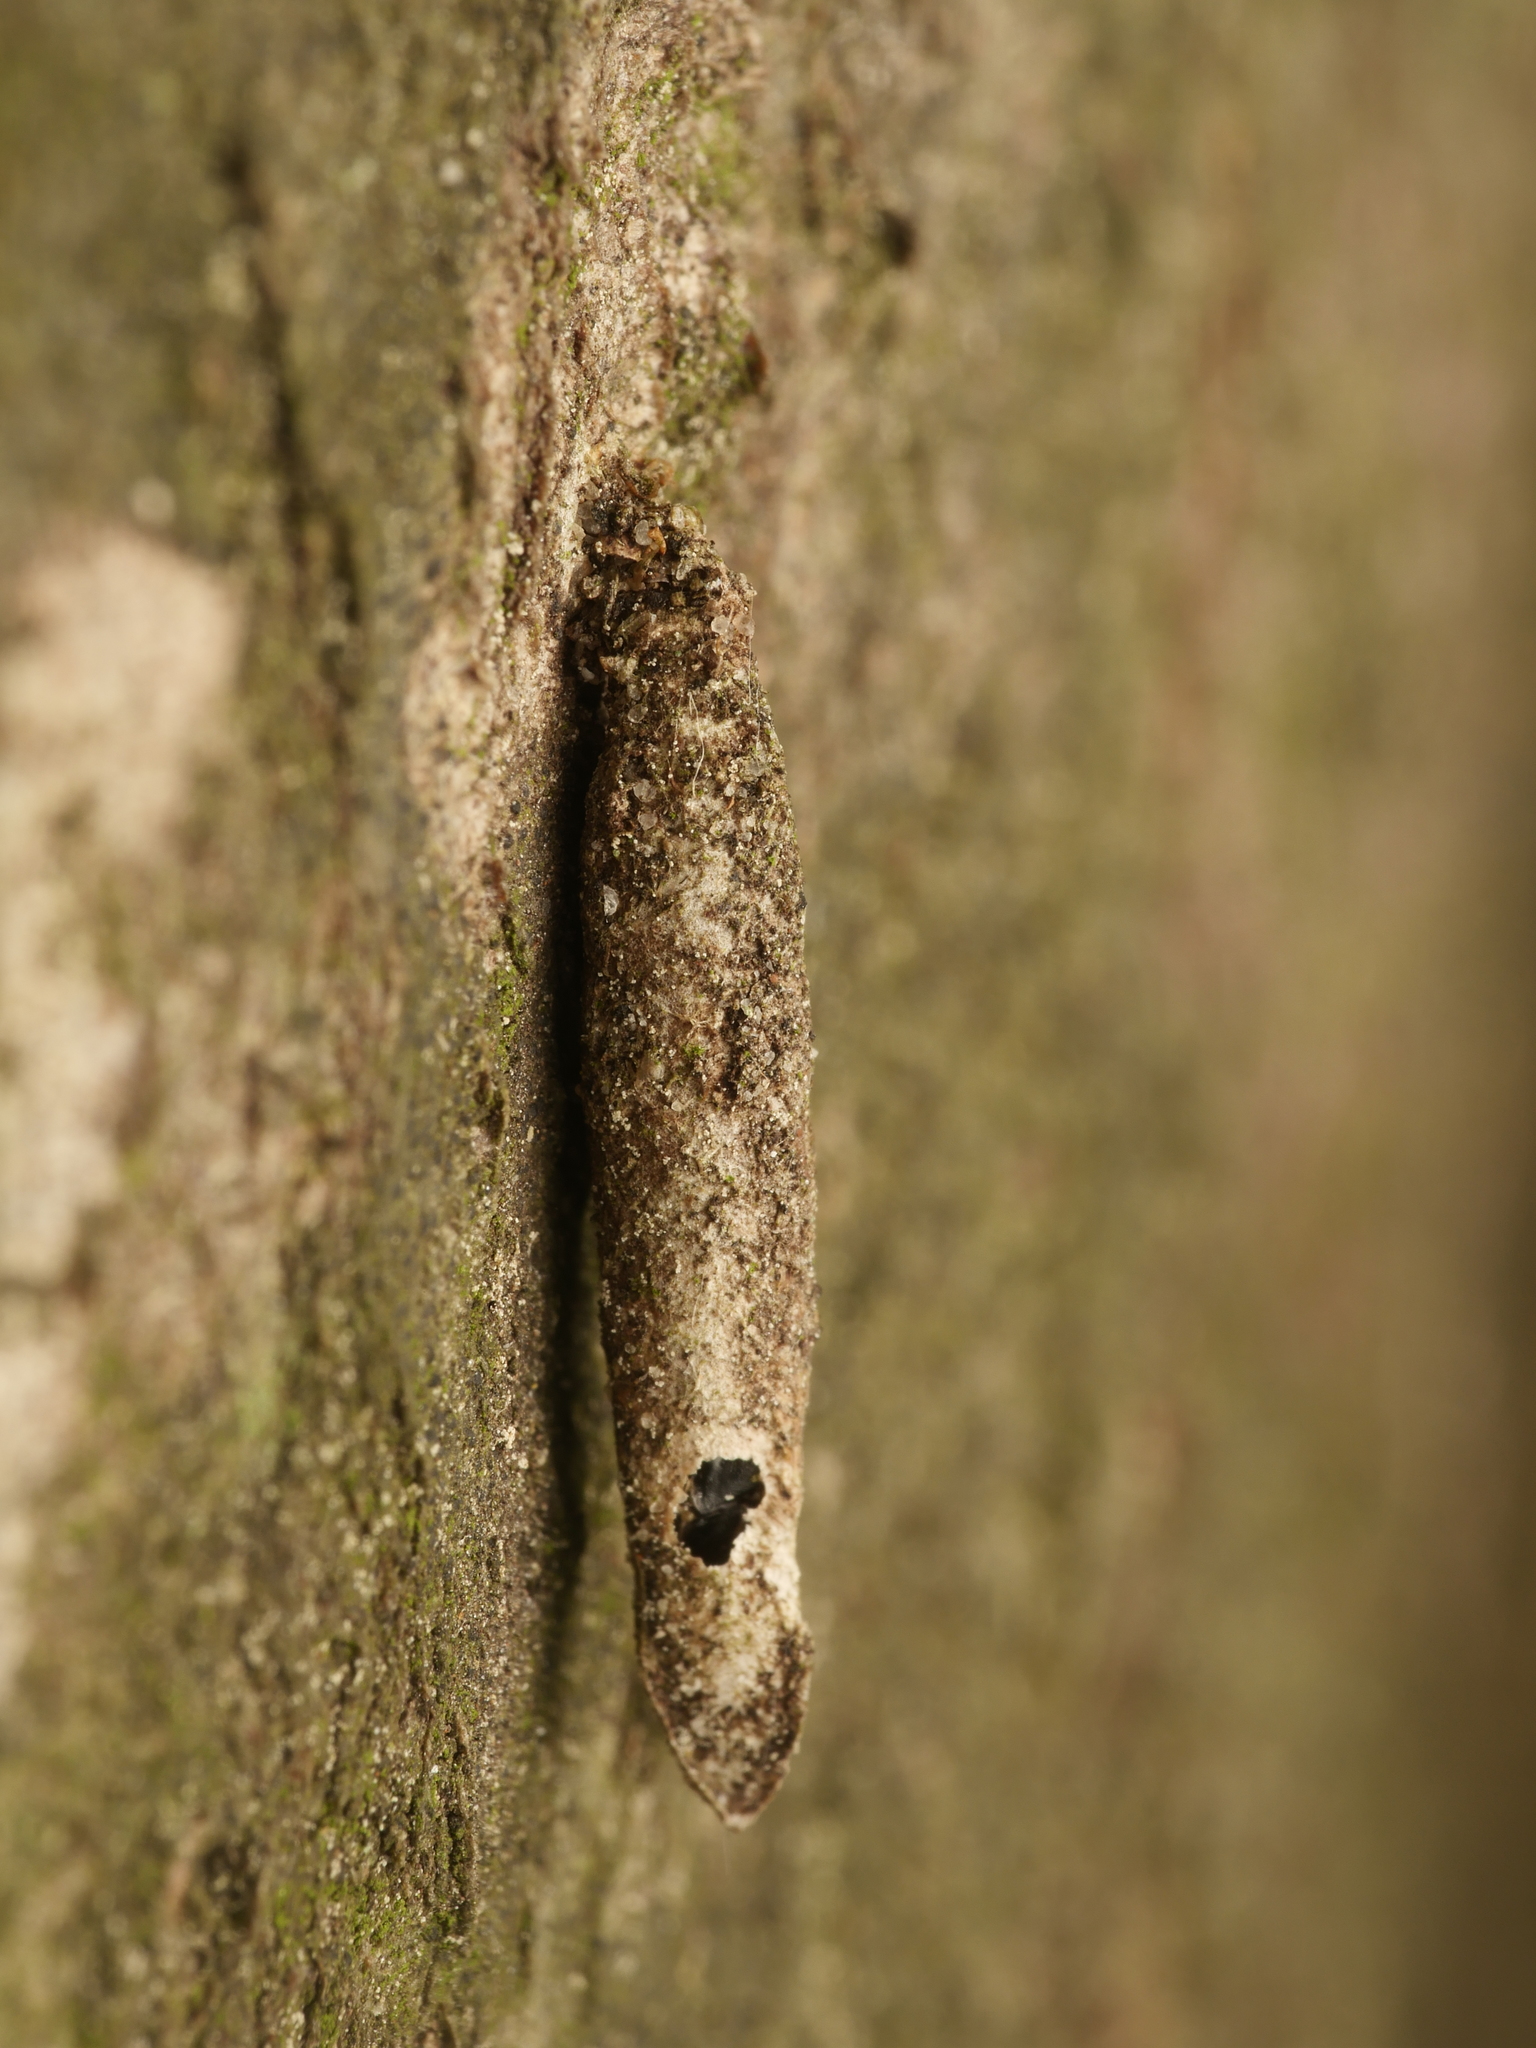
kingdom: Animalia
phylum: Arthropoda
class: Insecta
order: Lepidoptera
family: Psychidae
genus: Taleporia
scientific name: Taleporia tubulosa
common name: Brown smoke
